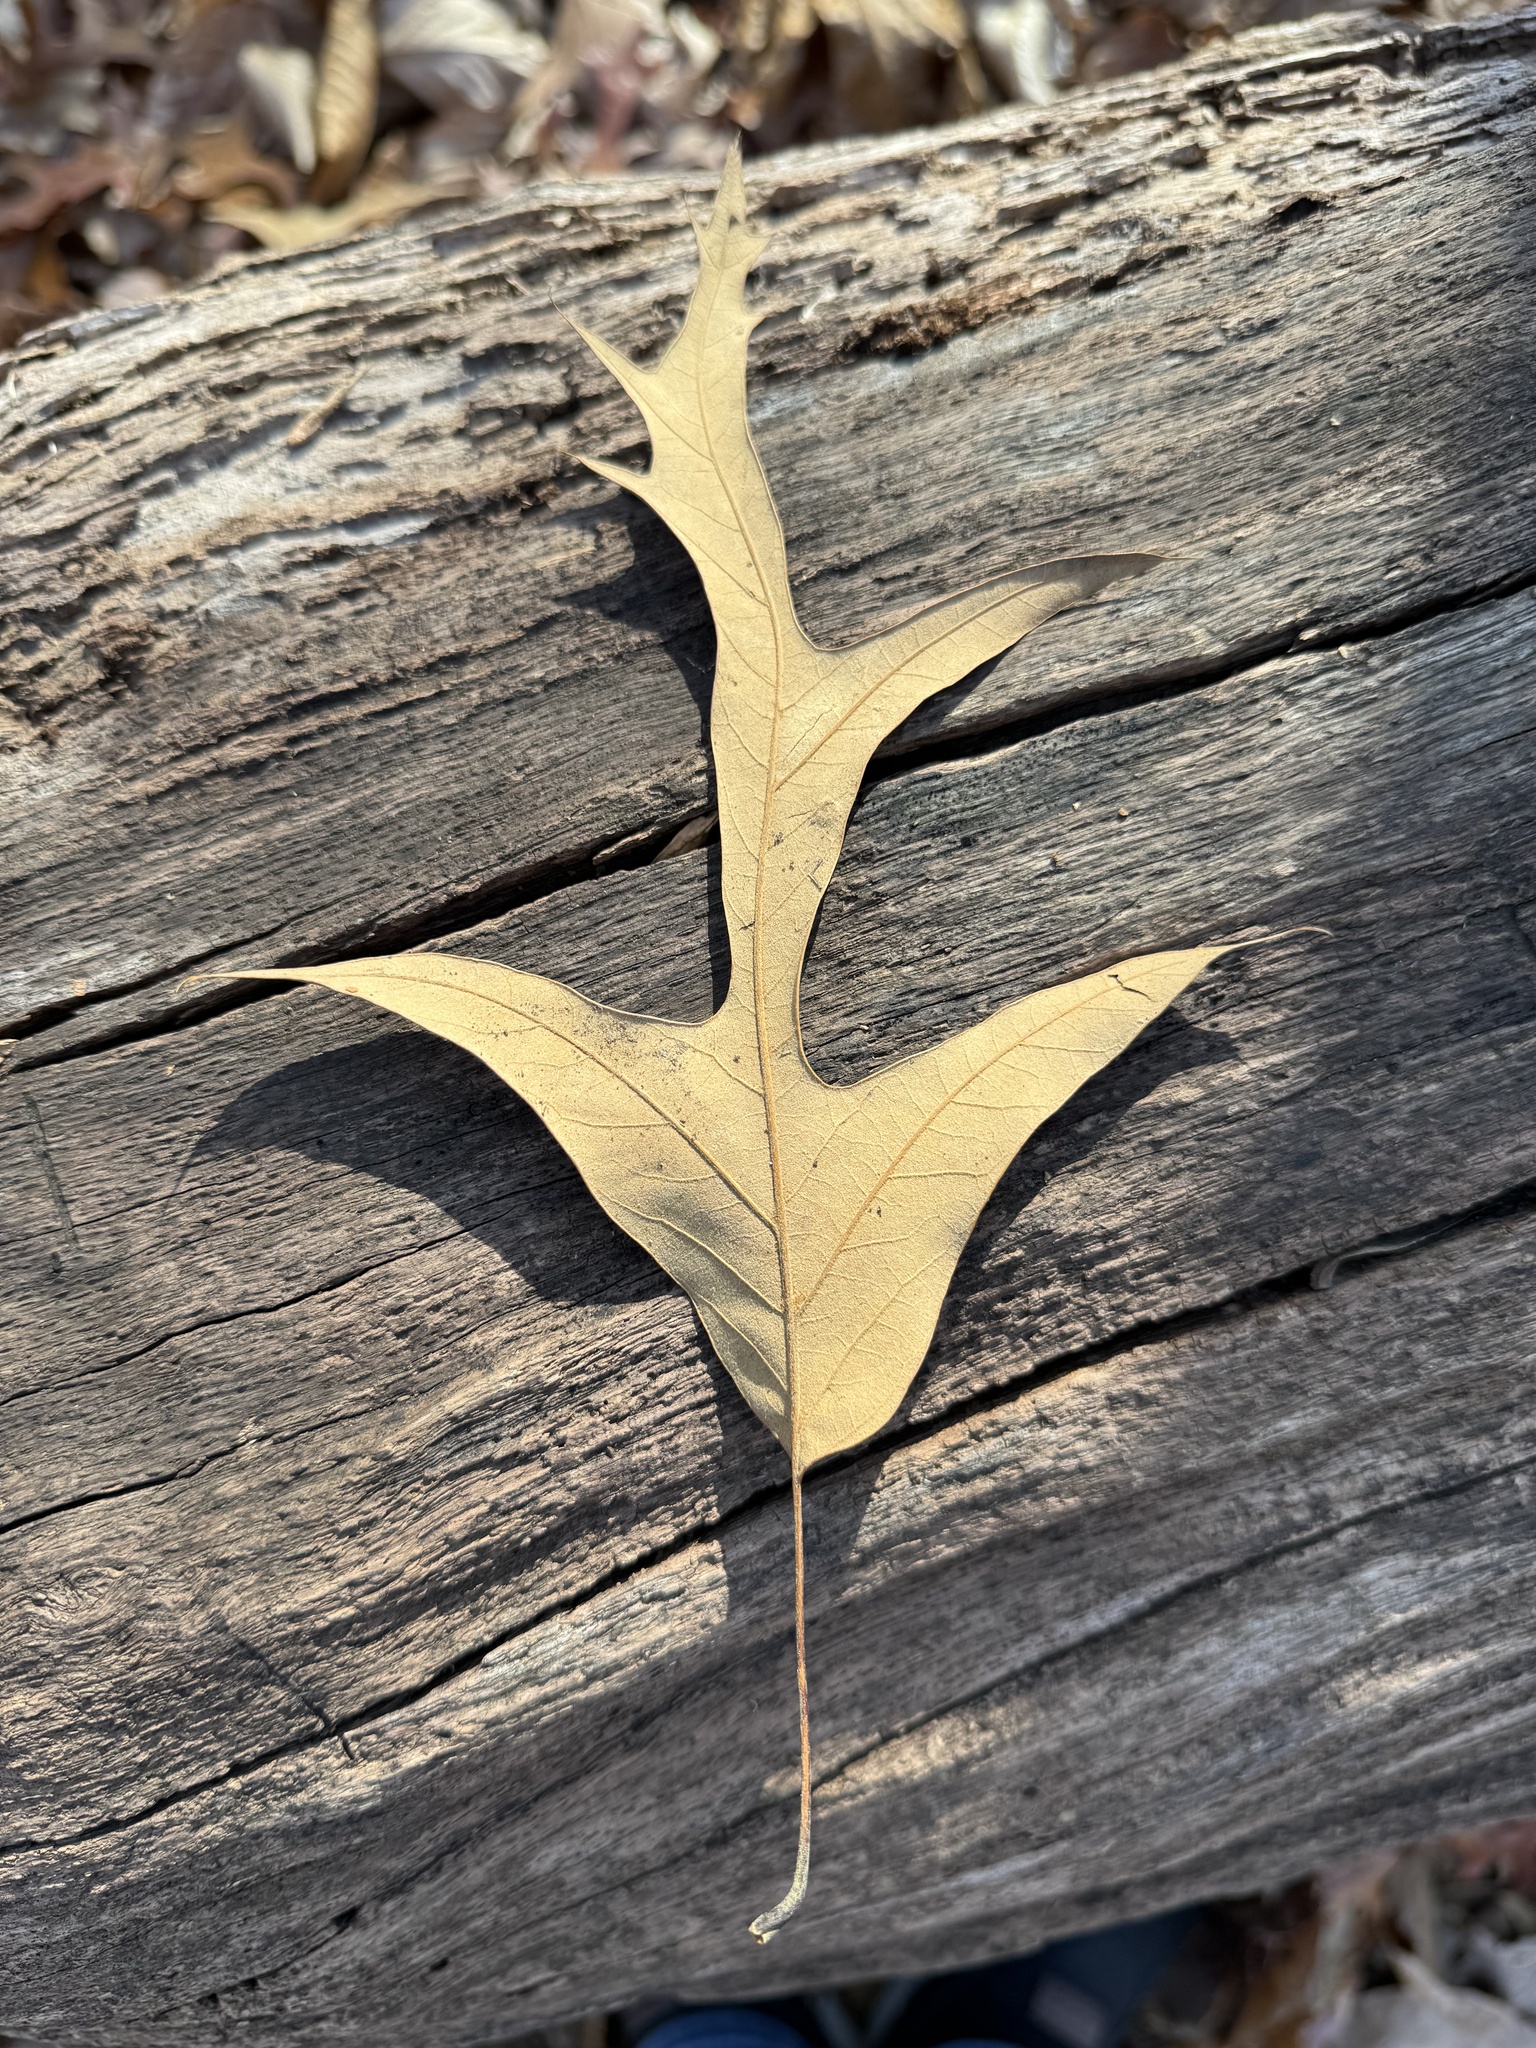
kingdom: Plantae
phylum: Tracheophyta
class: Magnoliopsida
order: Fagales
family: Fagaceae
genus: Quercus
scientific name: Quercus falcata
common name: Southern red oak
